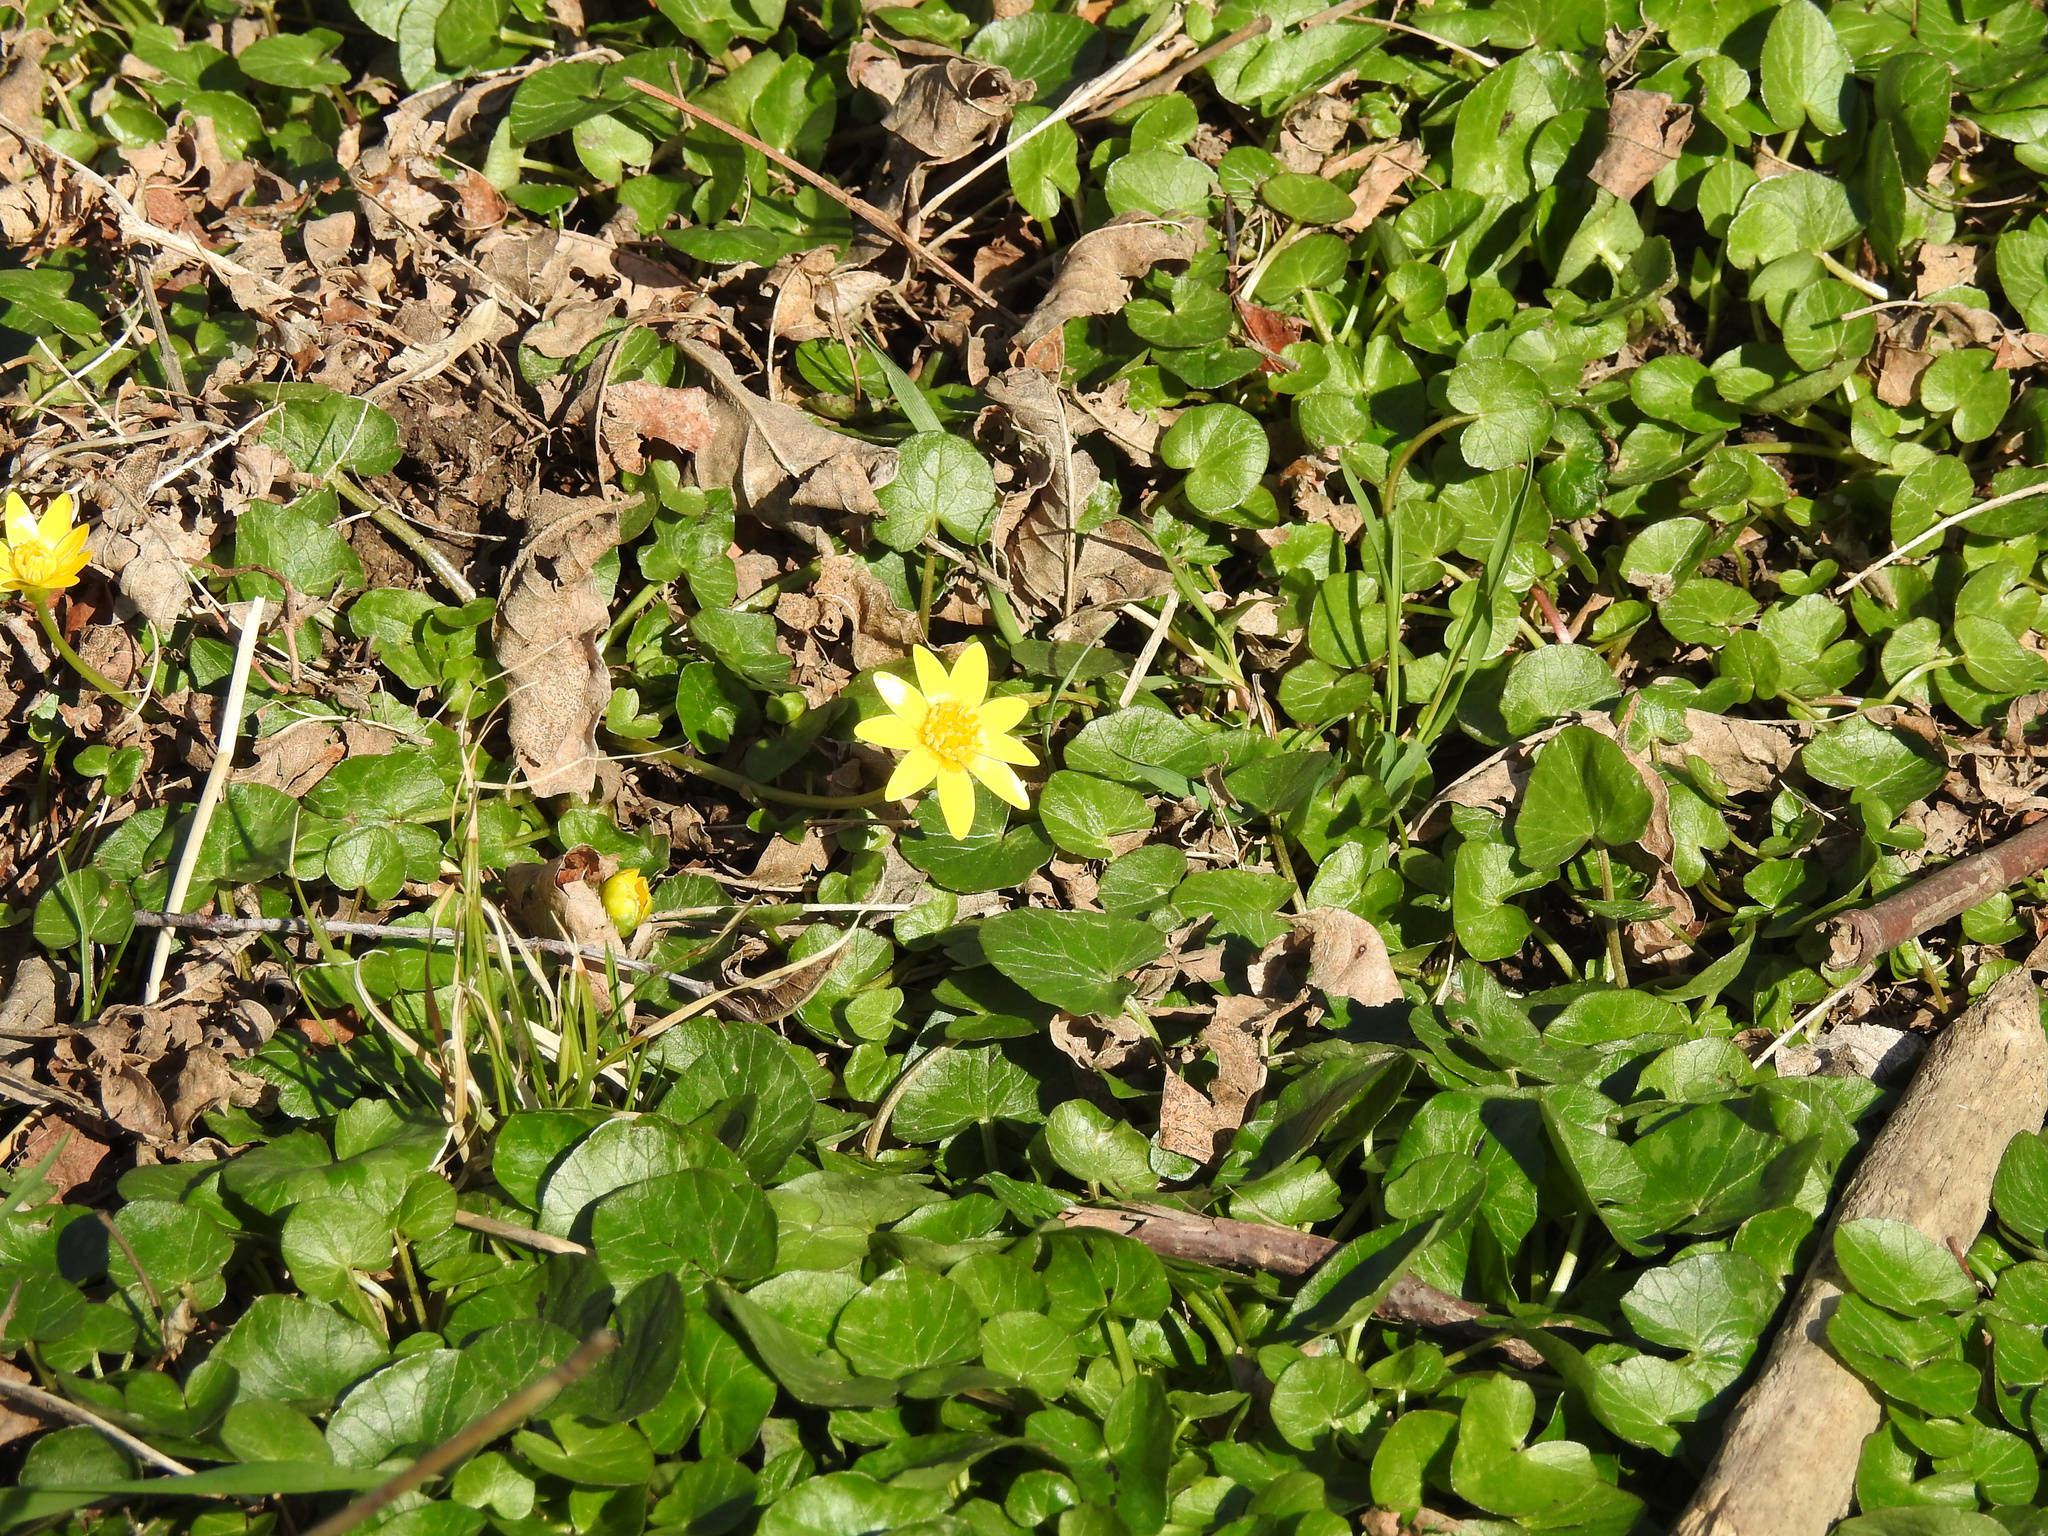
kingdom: Plantae
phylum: Tracheophyta
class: Magnoliopsida
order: Ranunculales
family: Ranunculaceae
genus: Ficaria
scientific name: Ficaria verna
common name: Lesser celandine
